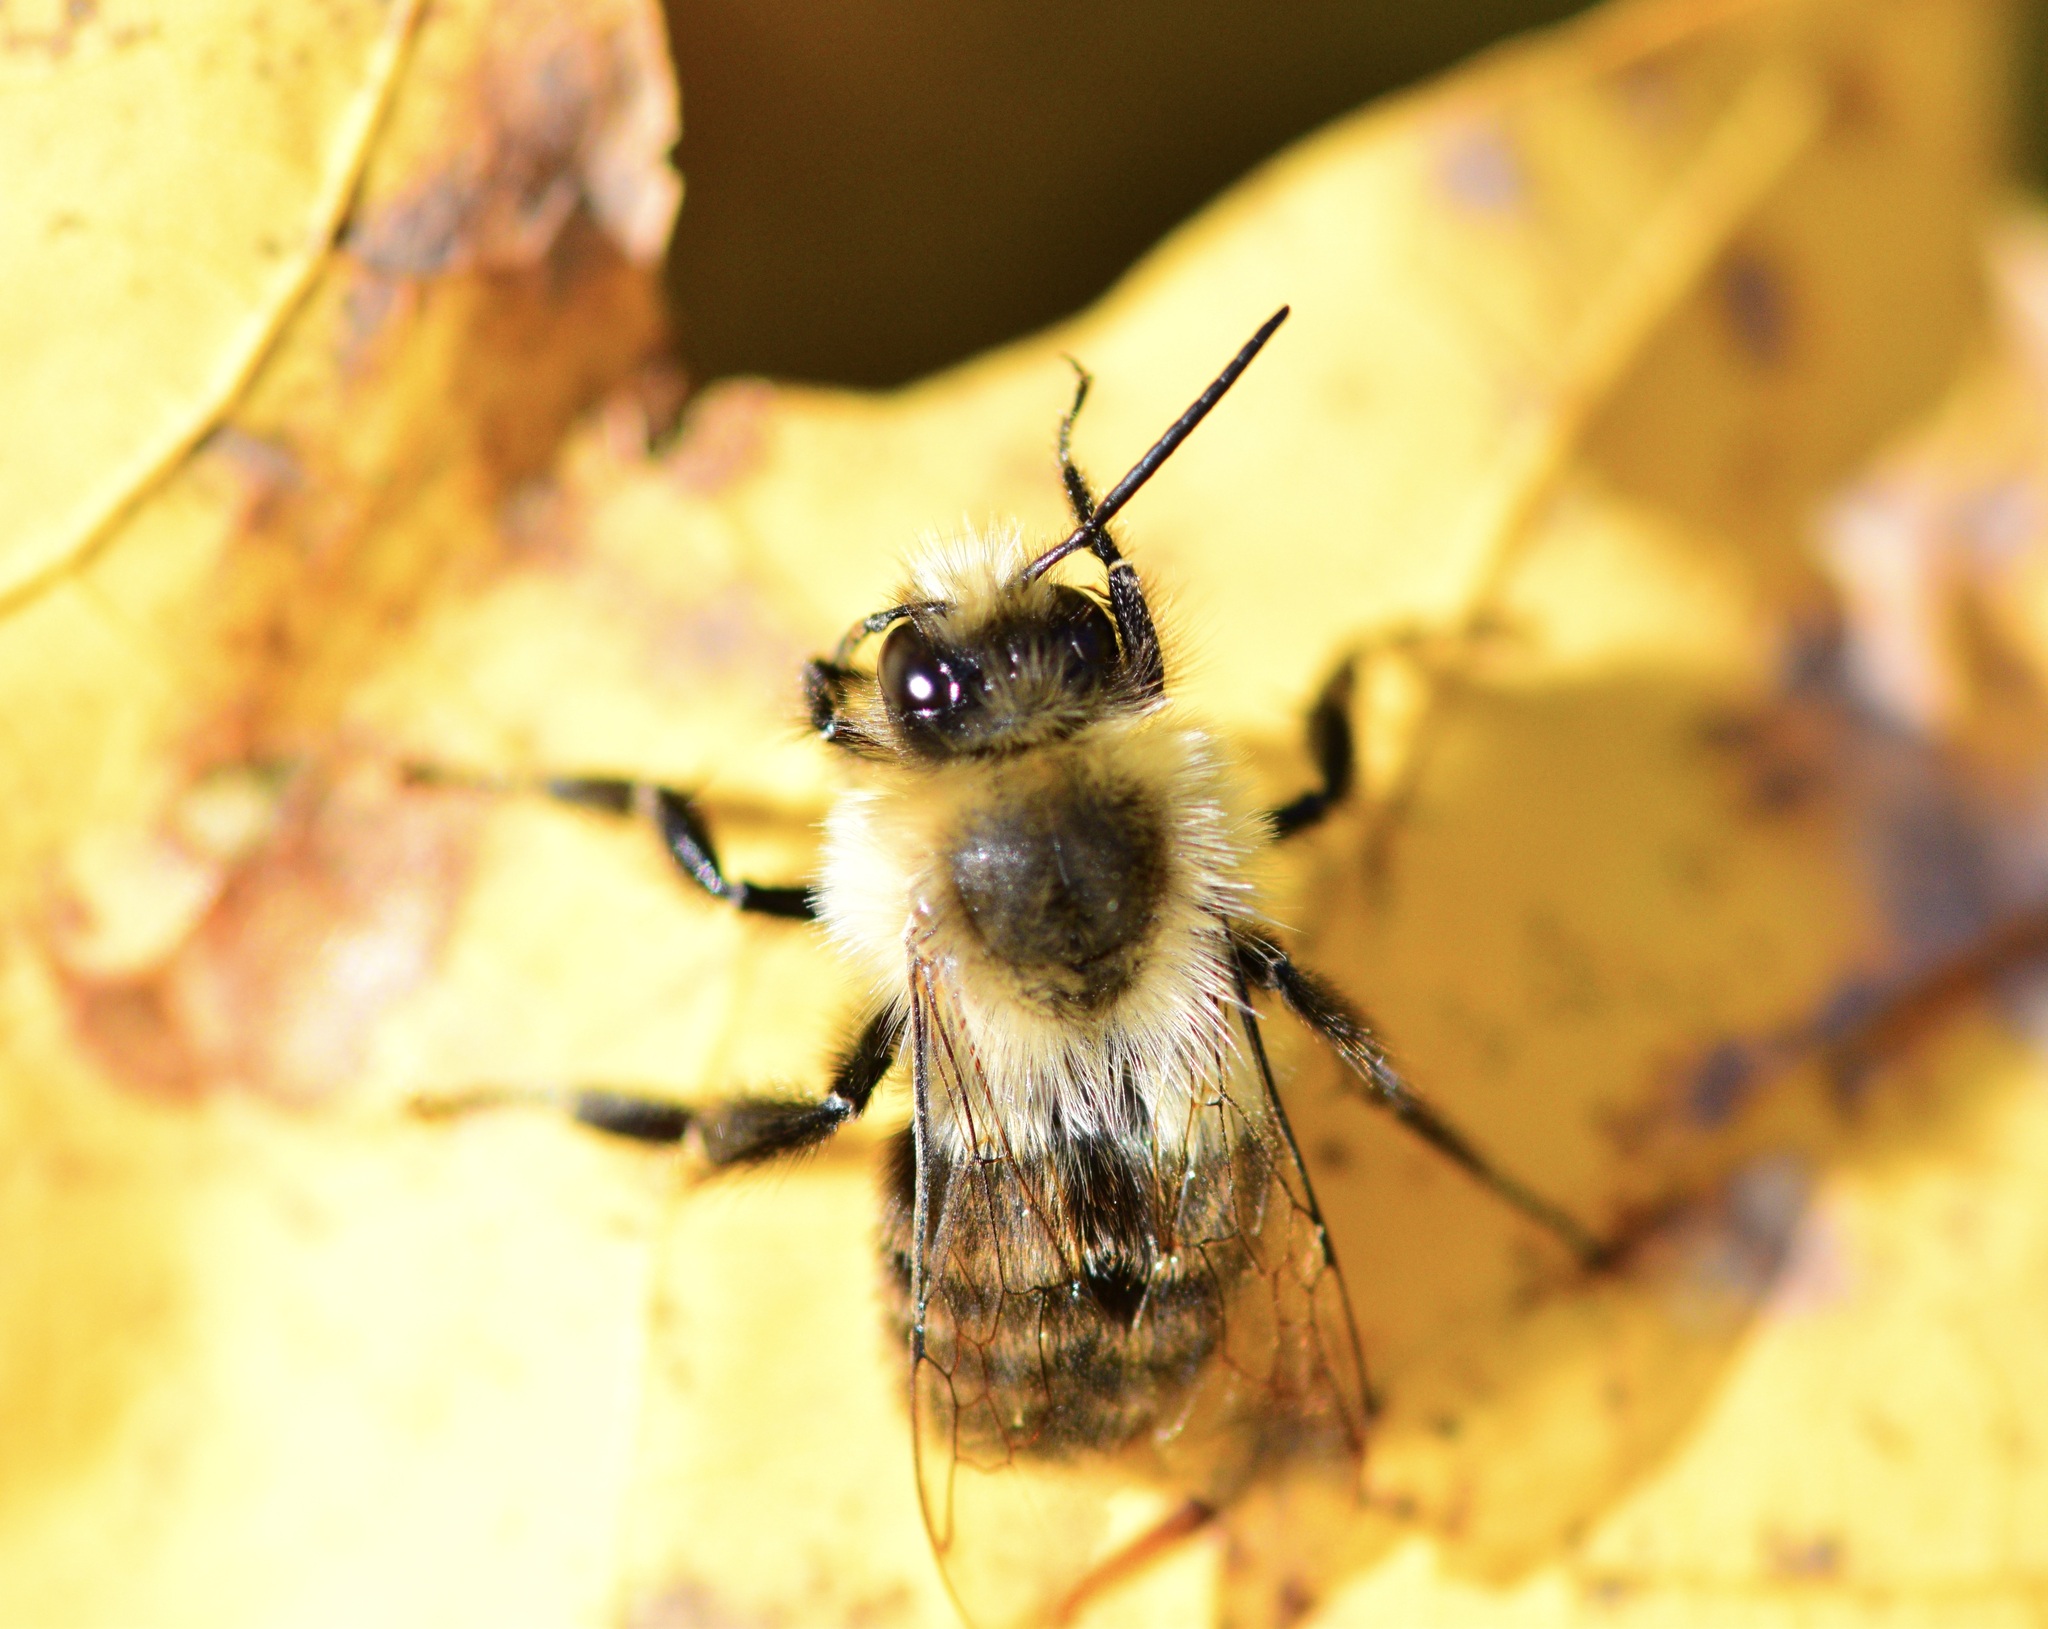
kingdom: Animalia
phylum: Arthropoda
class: Insecta
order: Hymenoptera
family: Apidae
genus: Bombus
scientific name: Bombus impatiens
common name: Common eastern bumble bee
